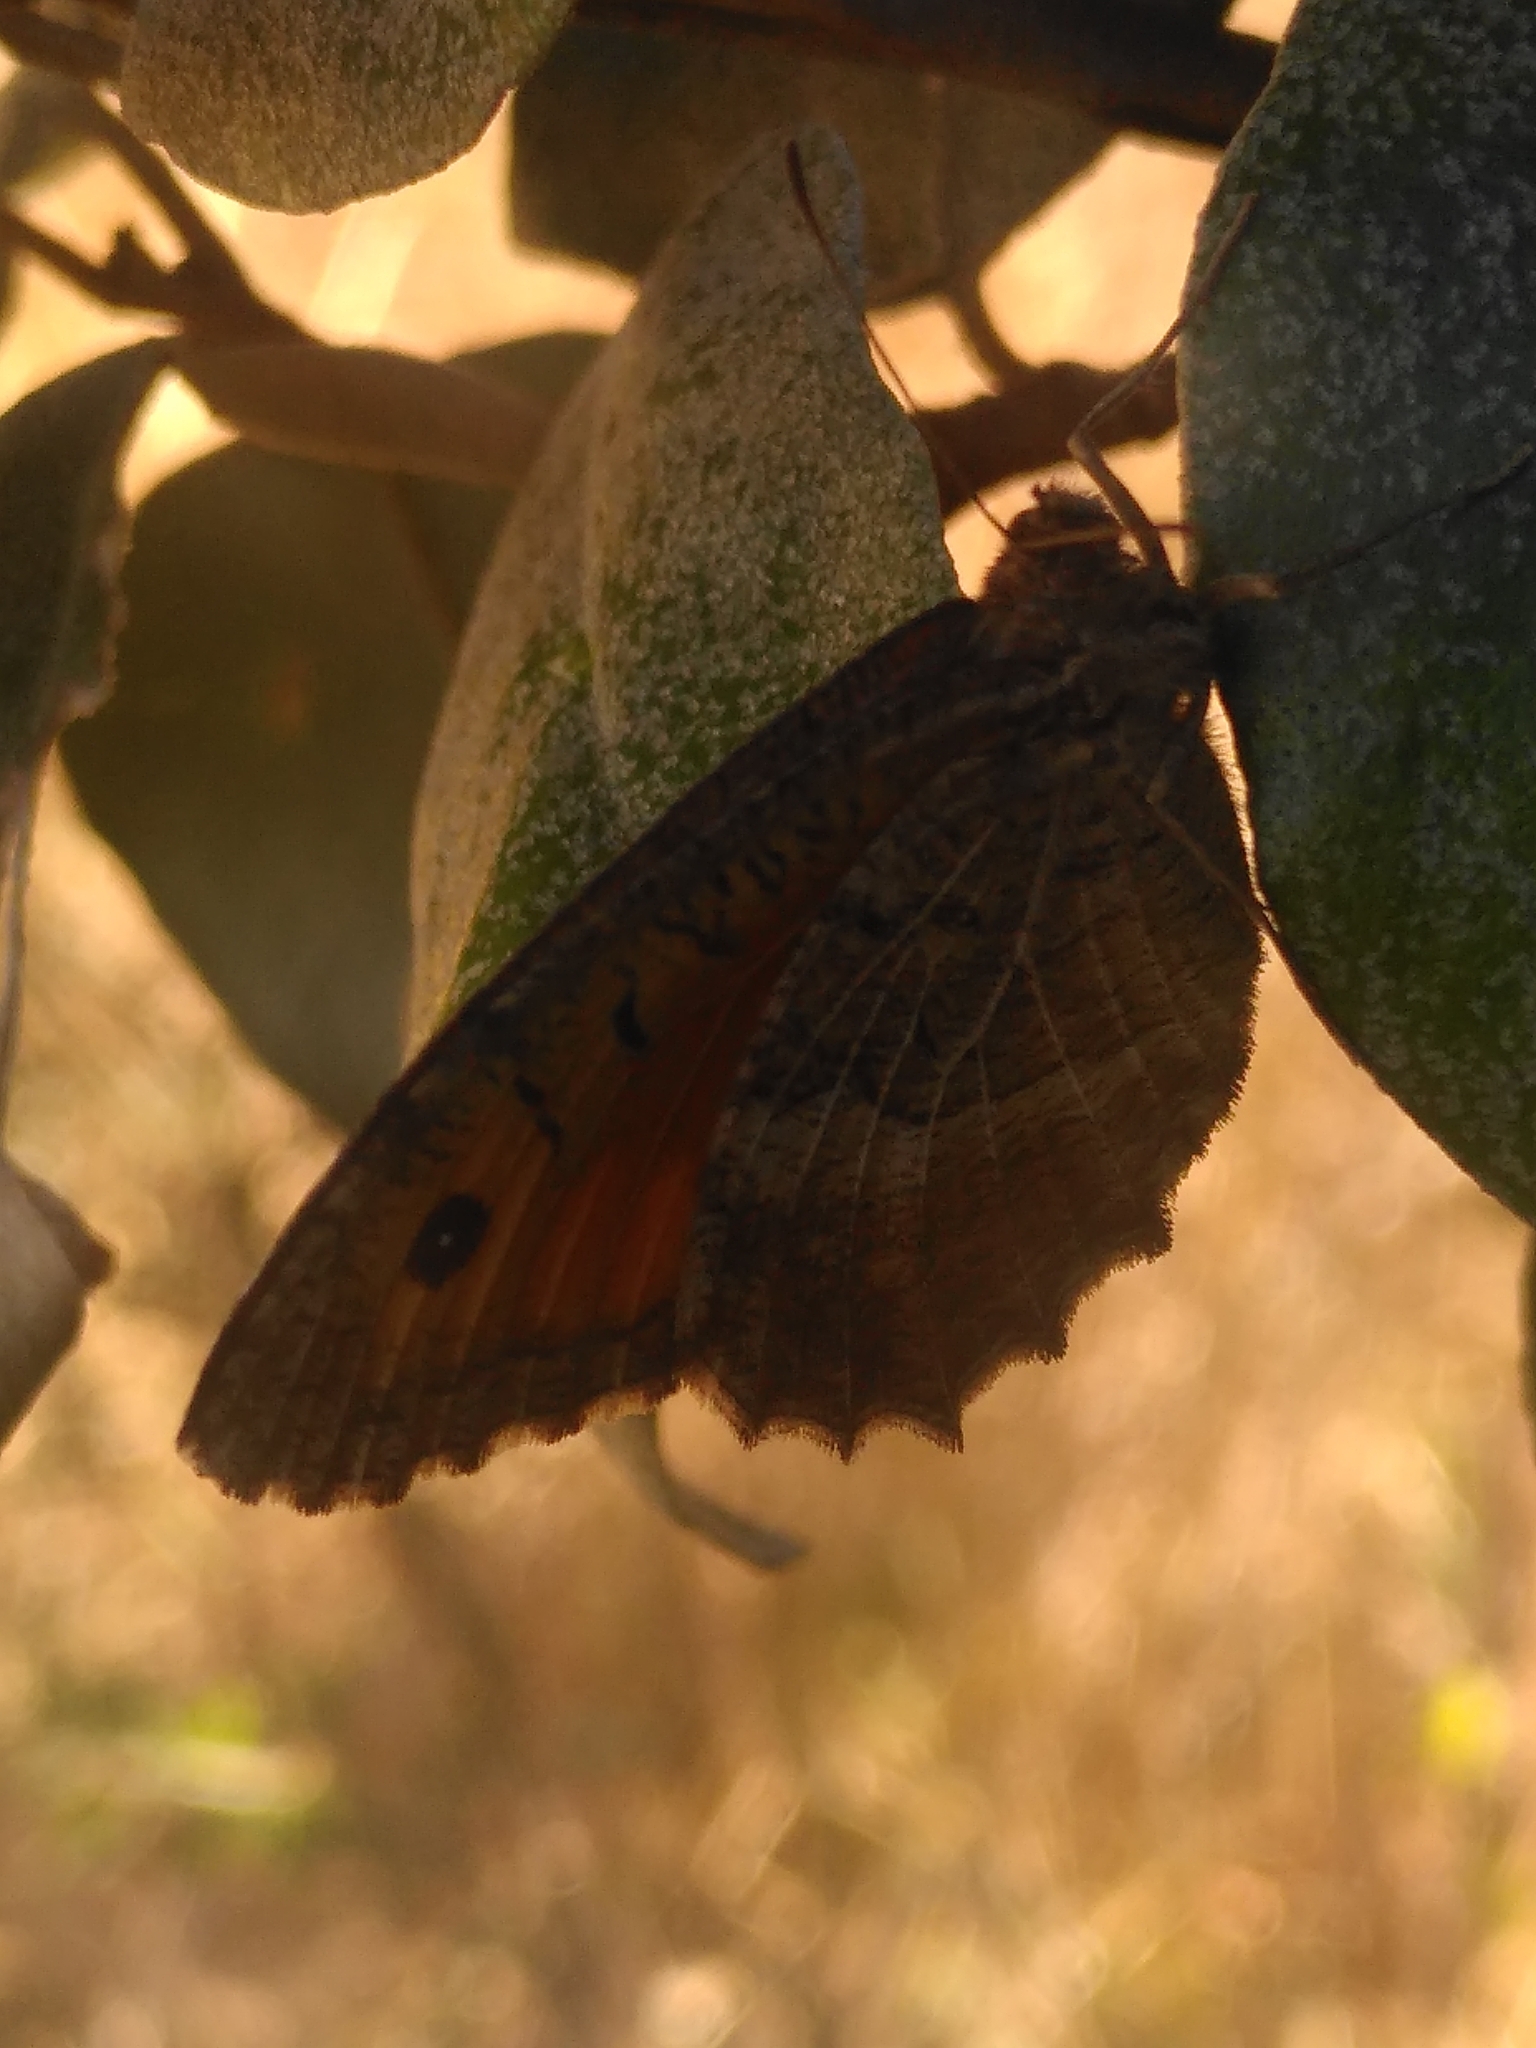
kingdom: Animalia
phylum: Arthropoda
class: Insecta
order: Lepidoptera
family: Nymphalidae
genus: Arethusana
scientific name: Arethusana arethusa
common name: False grayling
